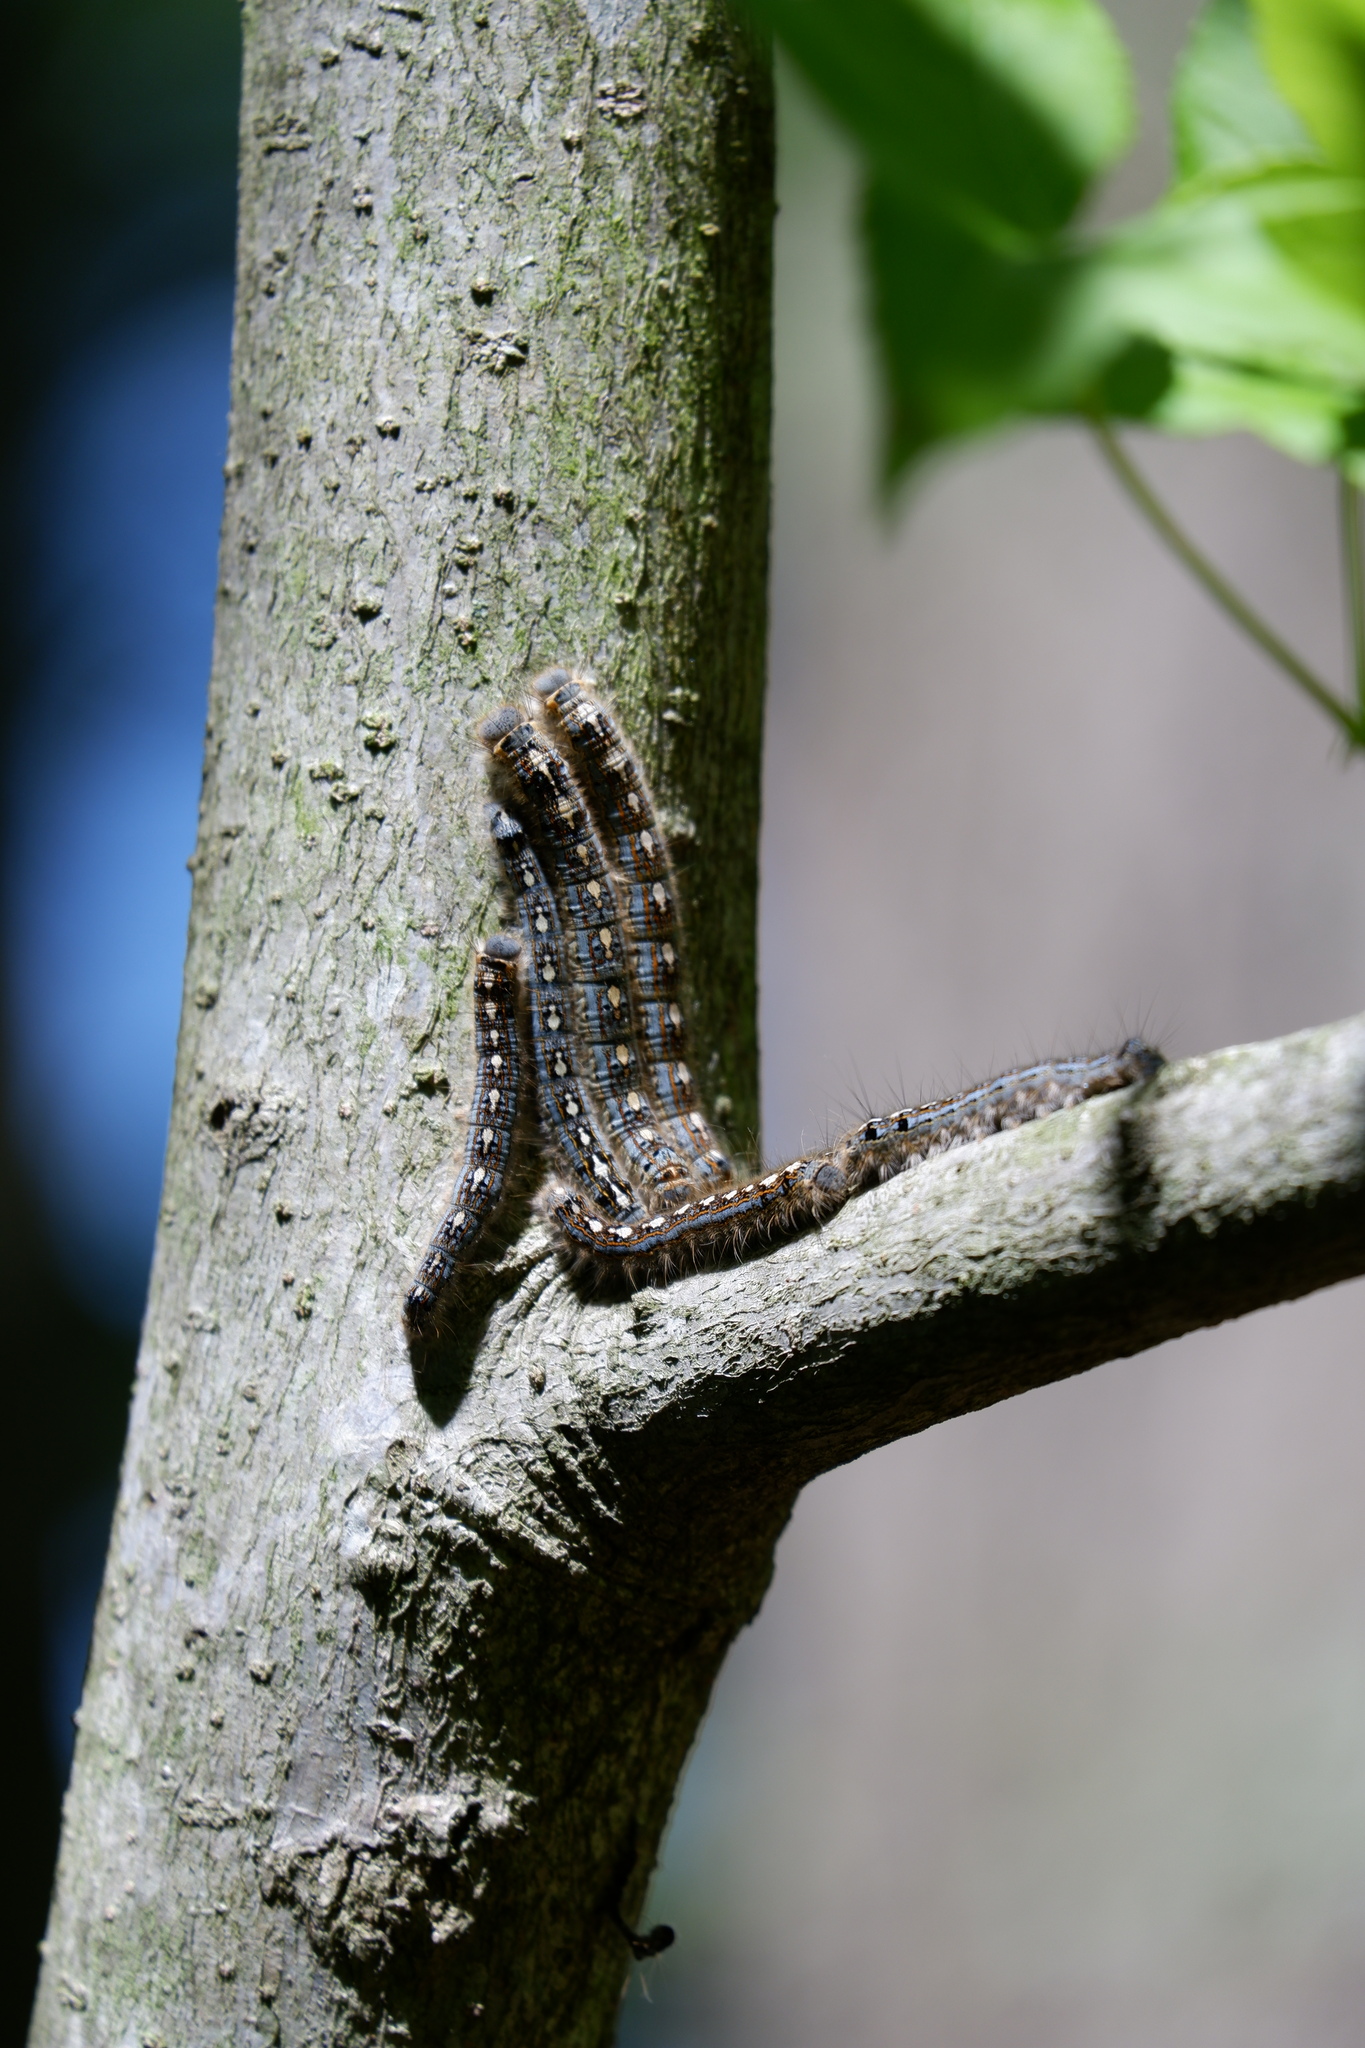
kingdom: Animalia
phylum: Arthropoda
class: Insecta
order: Lepidoptera
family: Lasiocampidae
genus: Malacosoma
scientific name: Malacosoma disstria
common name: Forest tent caterpillar
